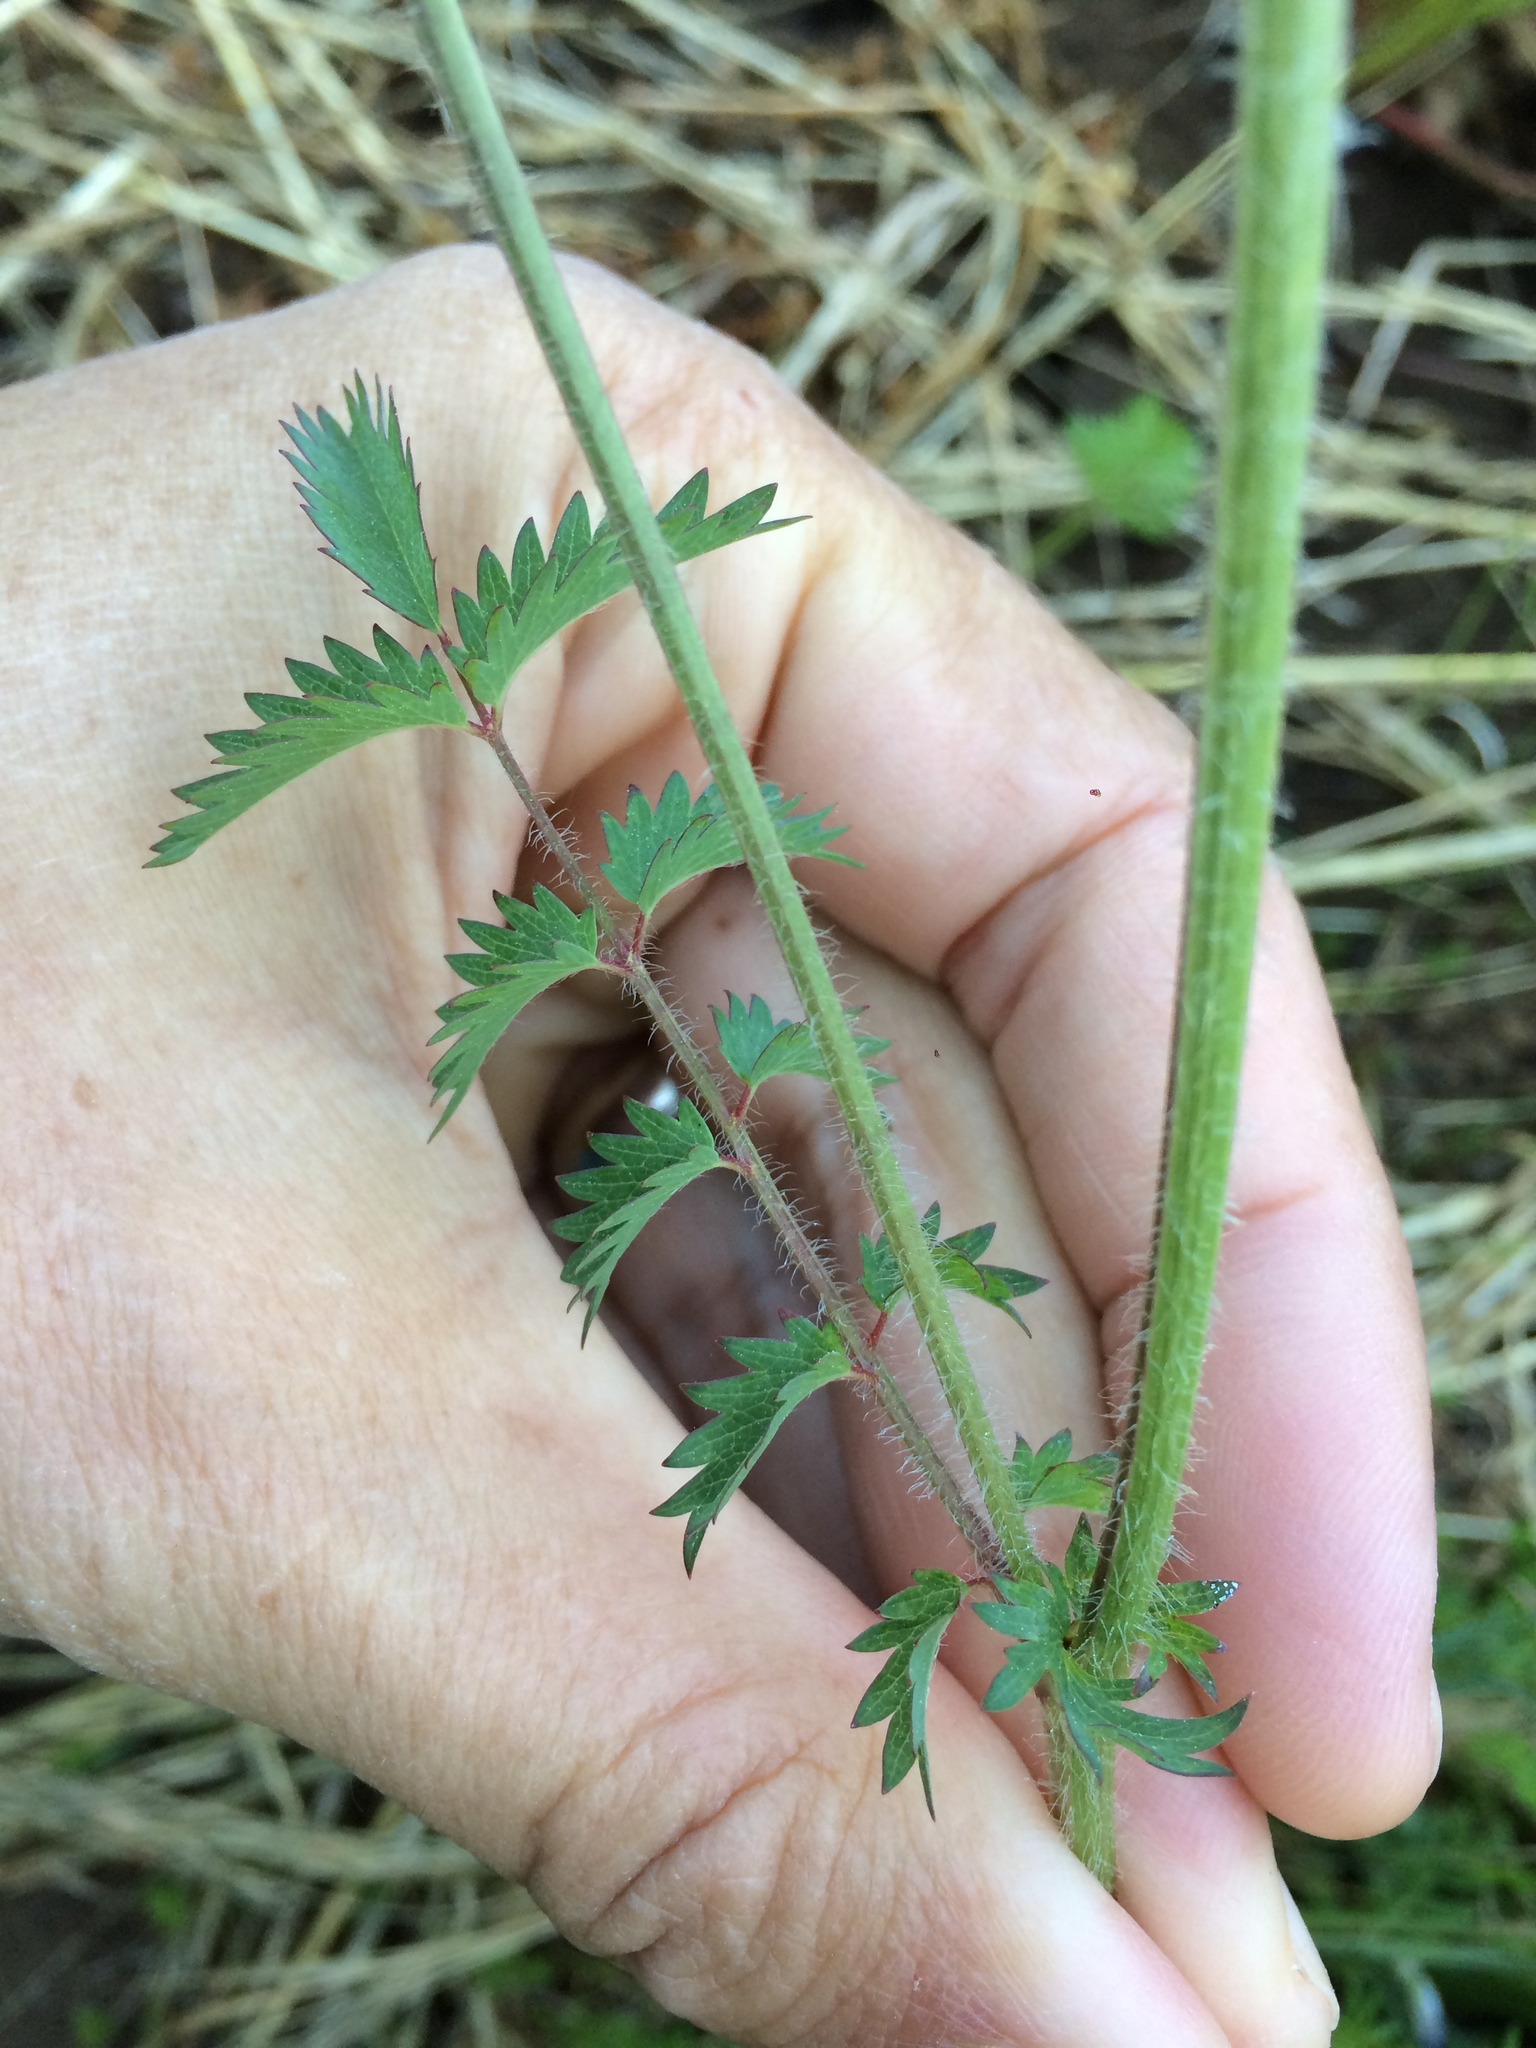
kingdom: Plantae
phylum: Tracheophyta
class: Magnoliopsida
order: Rosales
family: Rosaceae
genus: Poterium
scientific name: Poterium sanguisorba
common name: Salad burnet
